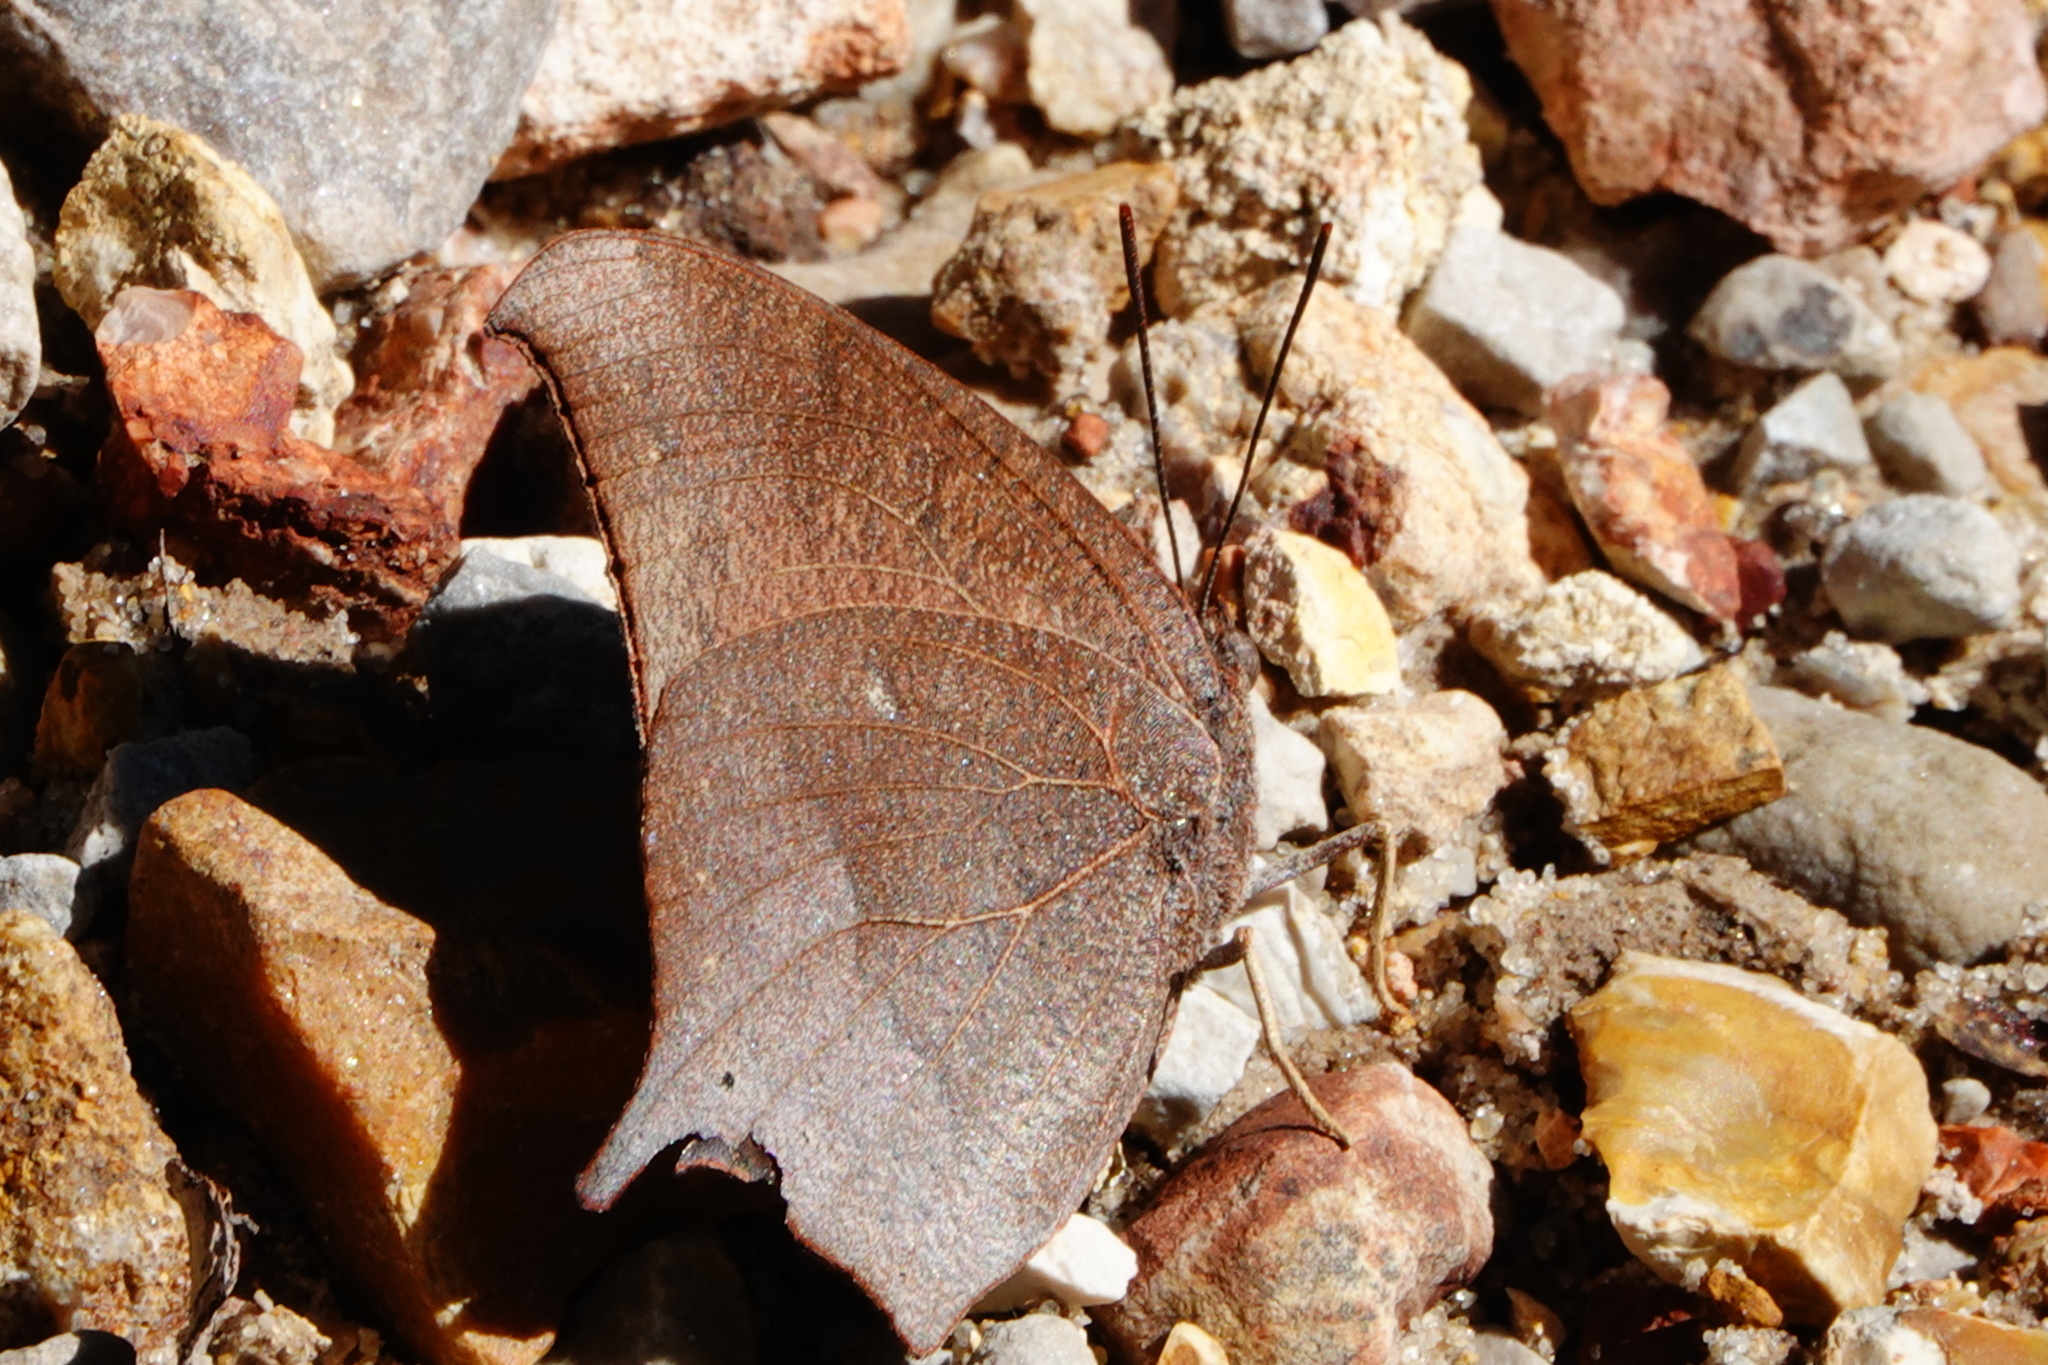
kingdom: Animalia
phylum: Arthropoda
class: Insecta
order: Lepidoptera
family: Nymphalidae
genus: Anaea
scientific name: Anaea andria
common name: Goatweed leafwing
